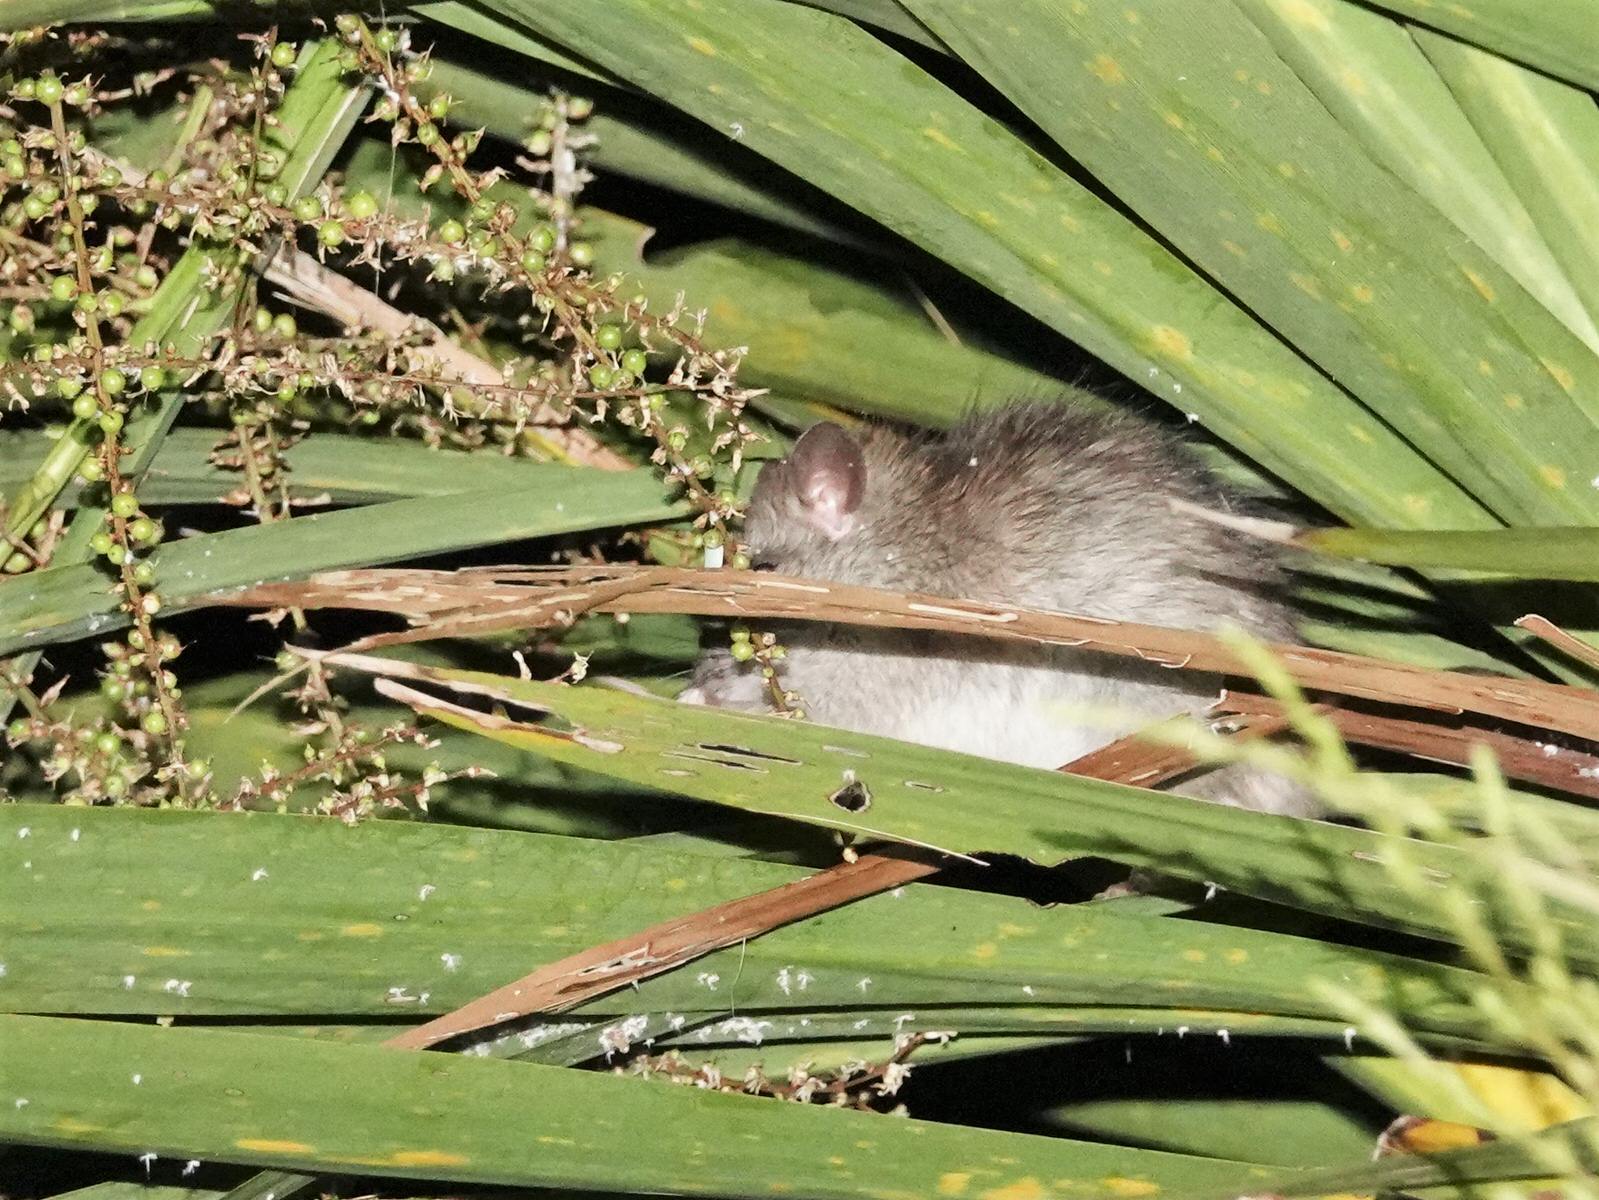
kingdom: Animalia
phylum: Chordata
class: Mammalia
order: Rodentia
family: Muridae
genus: Rattus
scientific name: Rattus rattus
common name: Black rat
